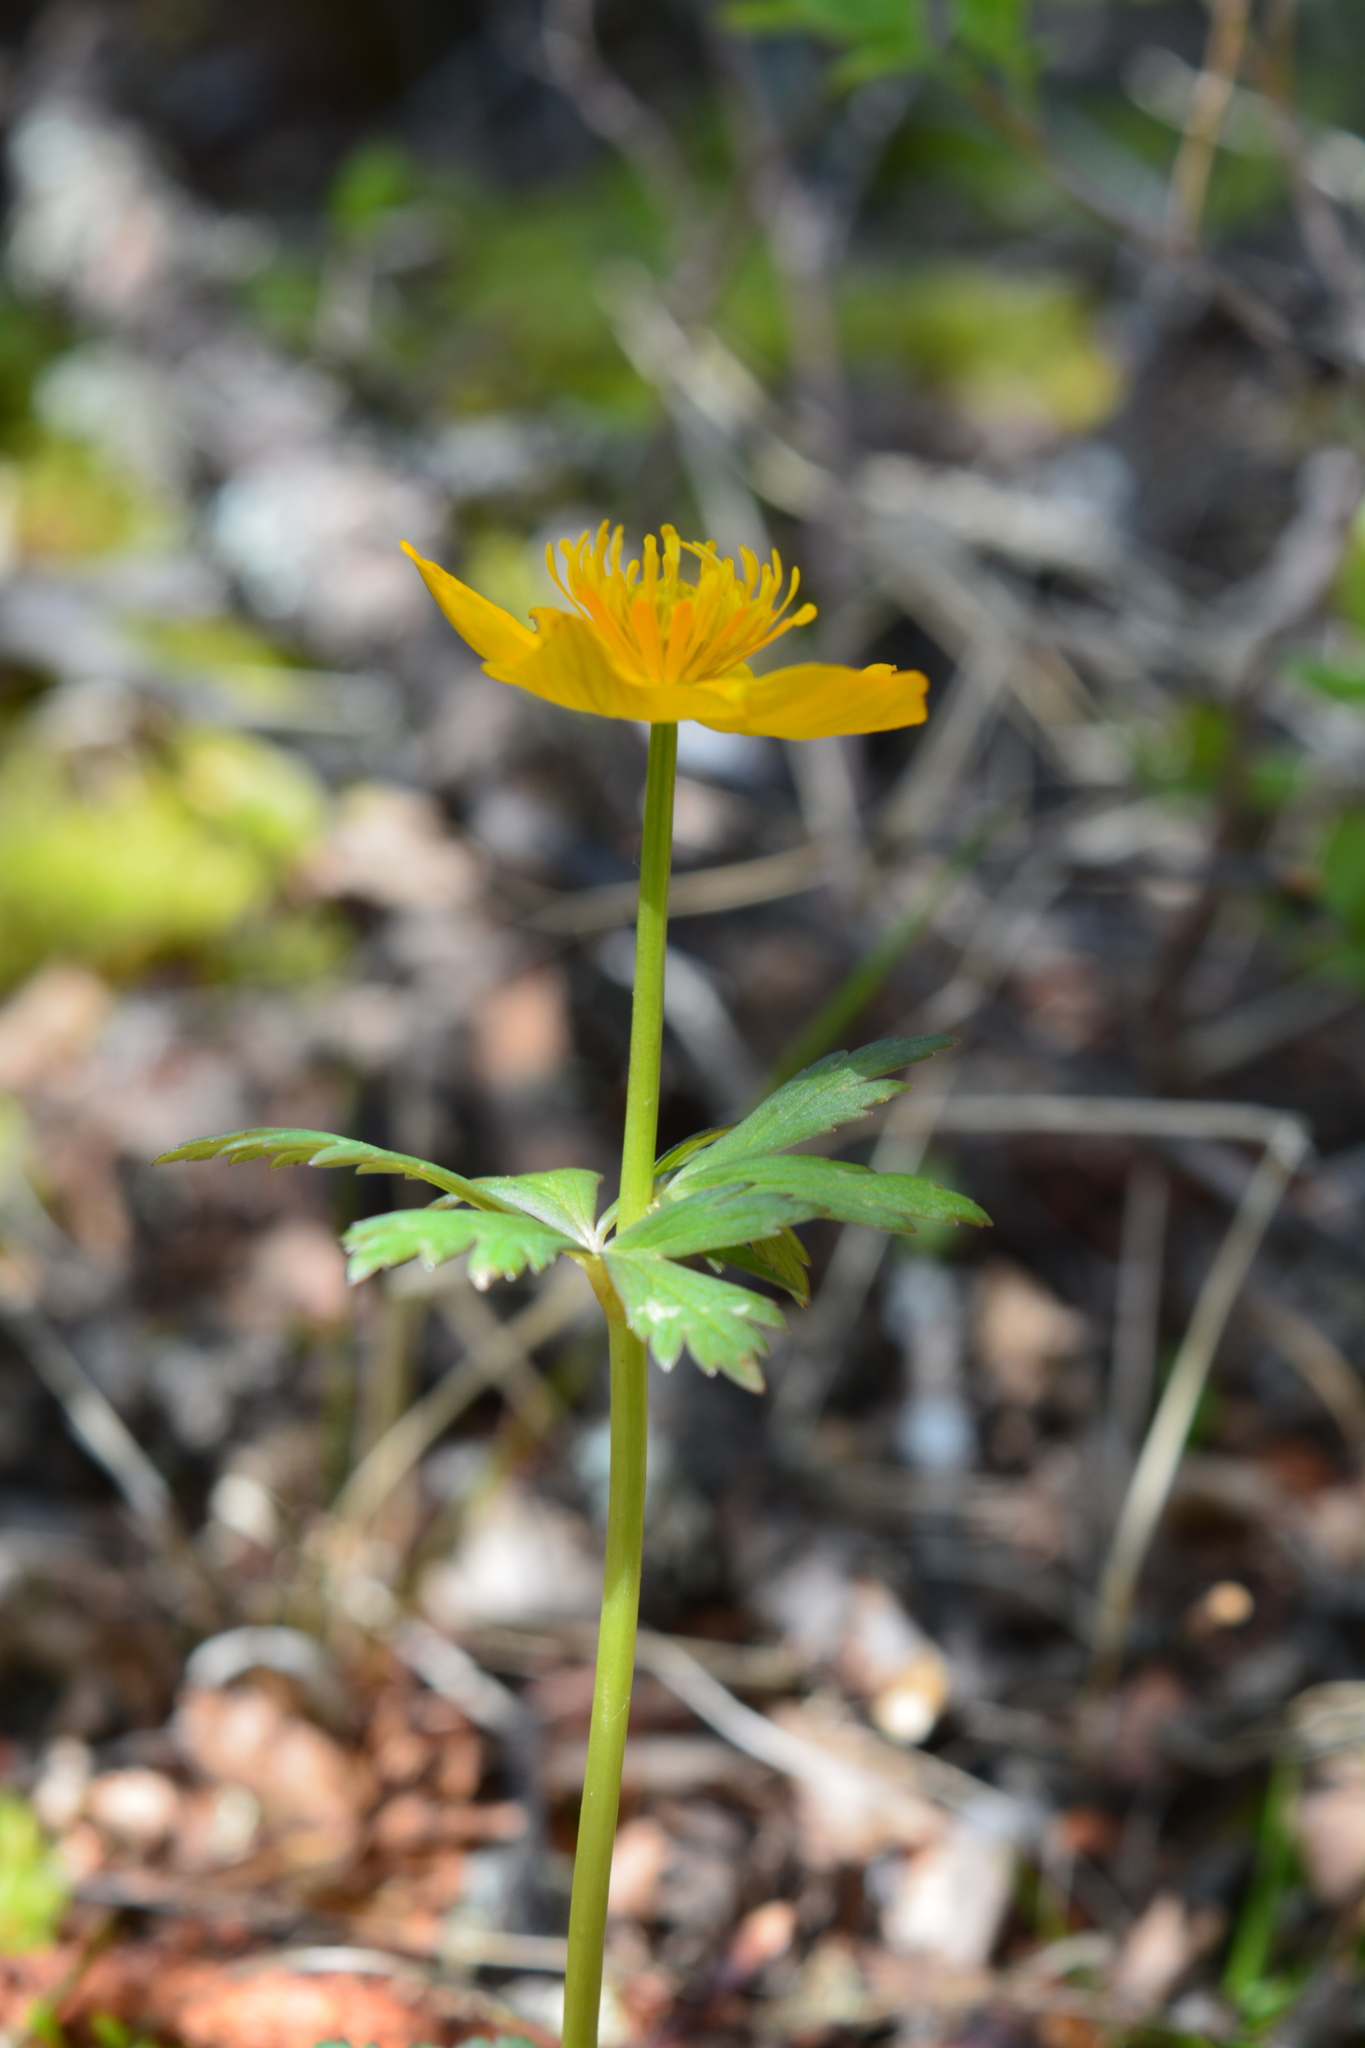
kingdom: Plantae
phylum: Tracheophyta
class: Magnoliopsida
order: Ranunculales
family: Ranunculaceae
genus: Trollius
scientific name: Trollius vicarius
